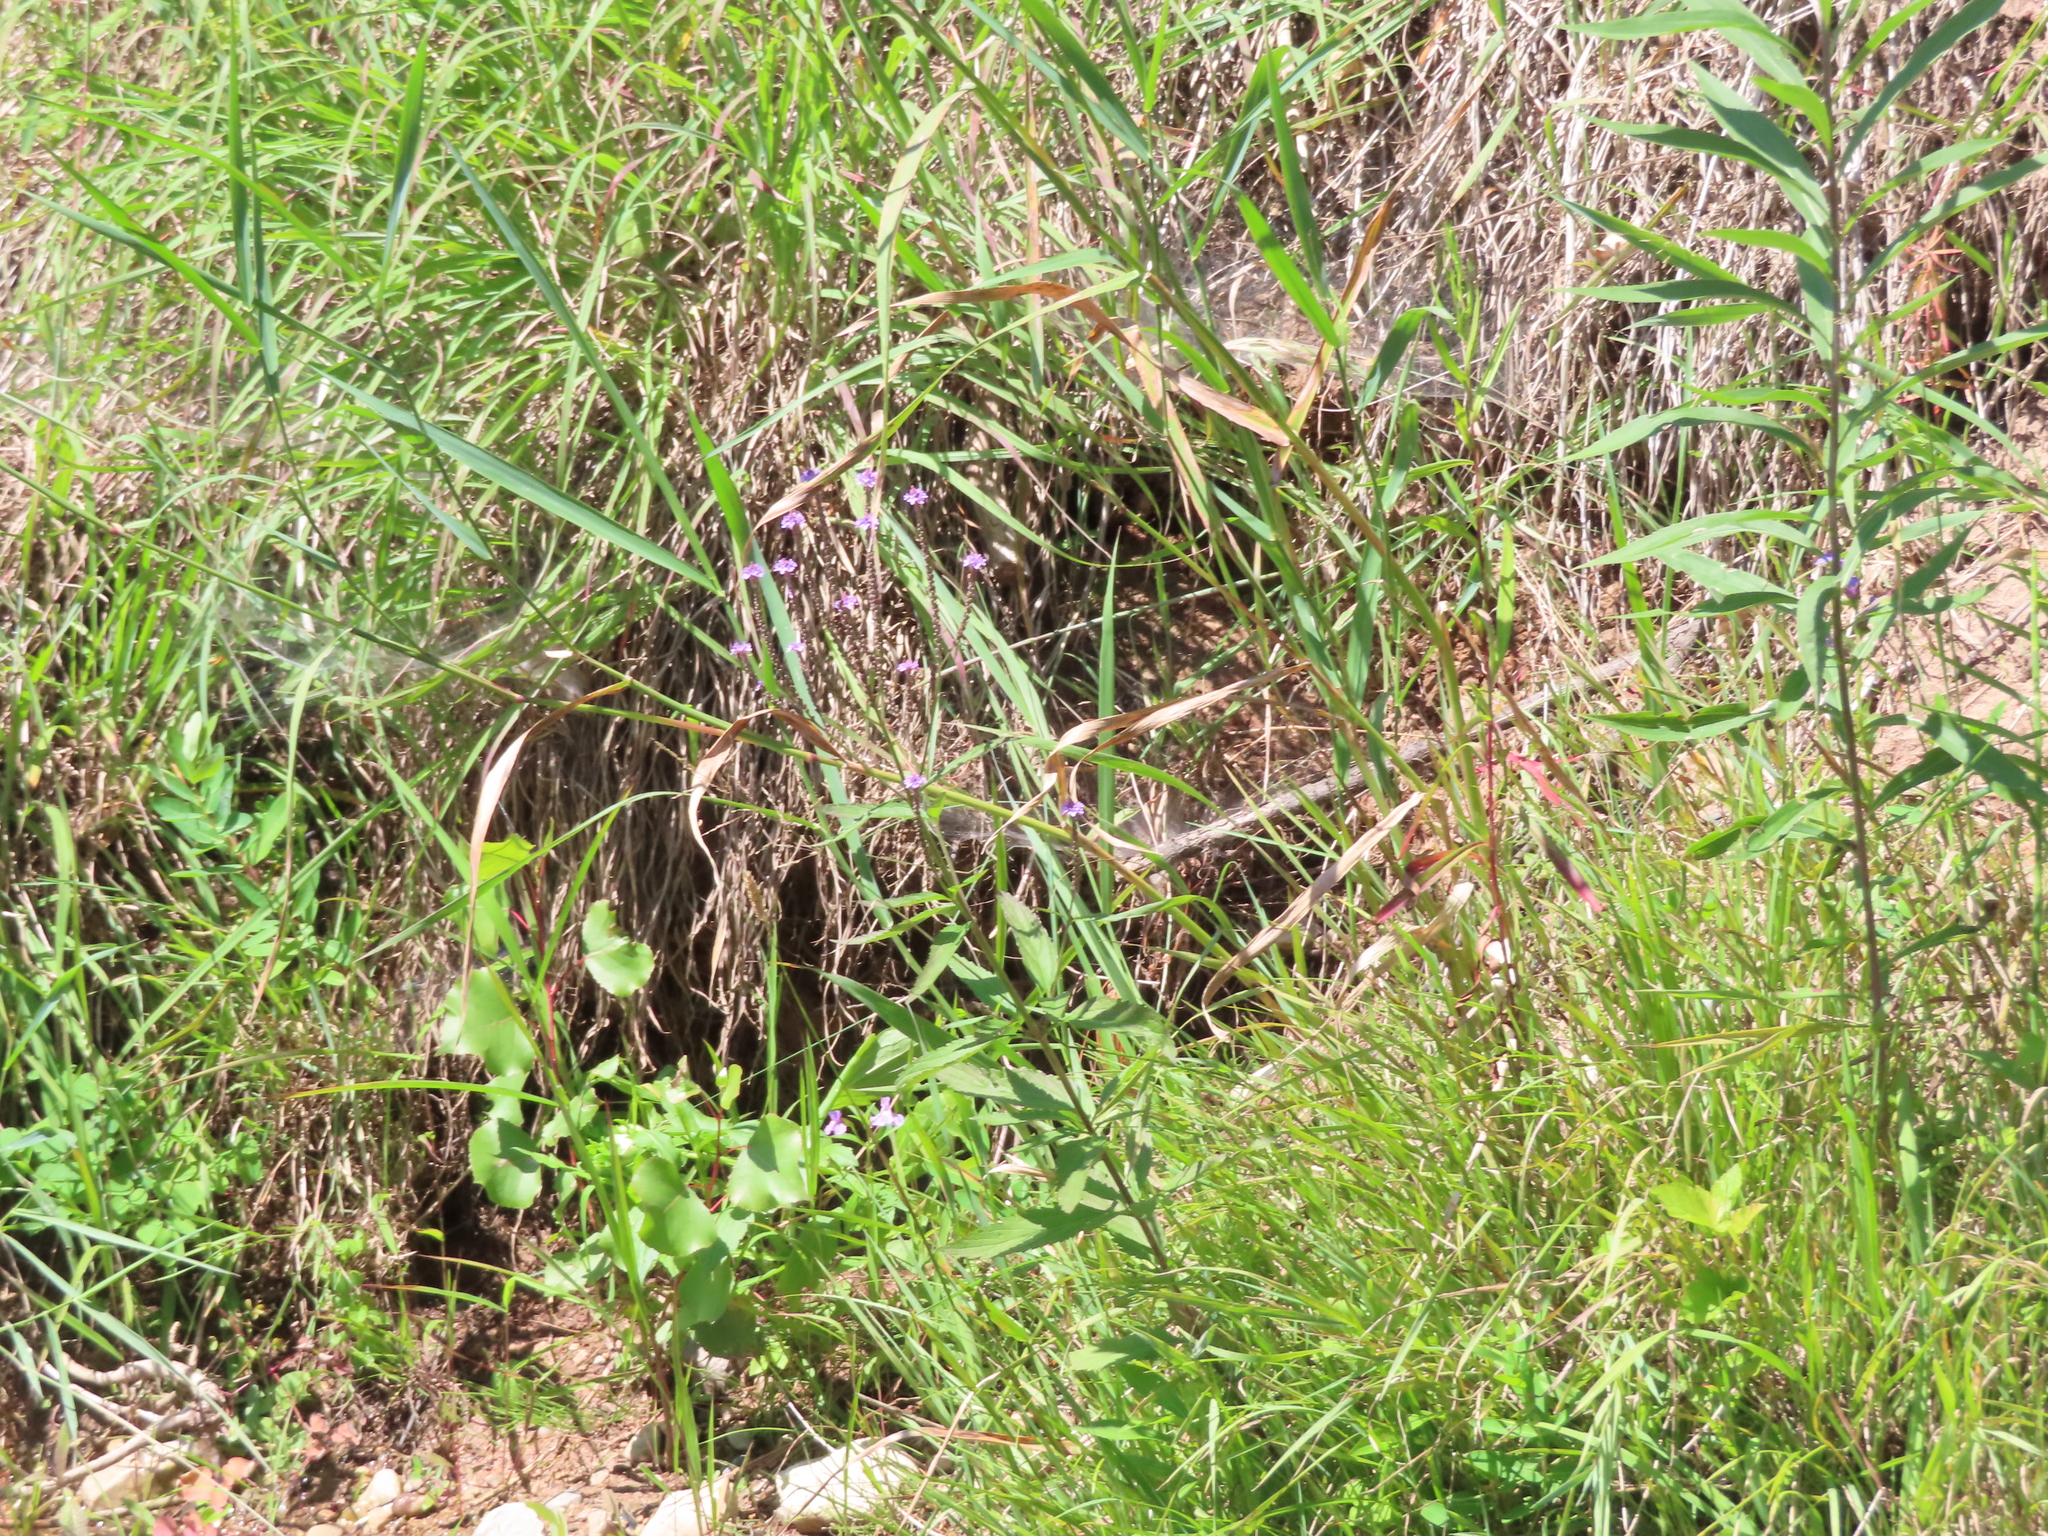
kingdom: Plantae
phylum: Tracheophyta
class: Magnoliopsida
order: Lamiales
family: Verbenaceae
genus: Verbena
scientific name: Verbena hastata
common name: American blue vervain
